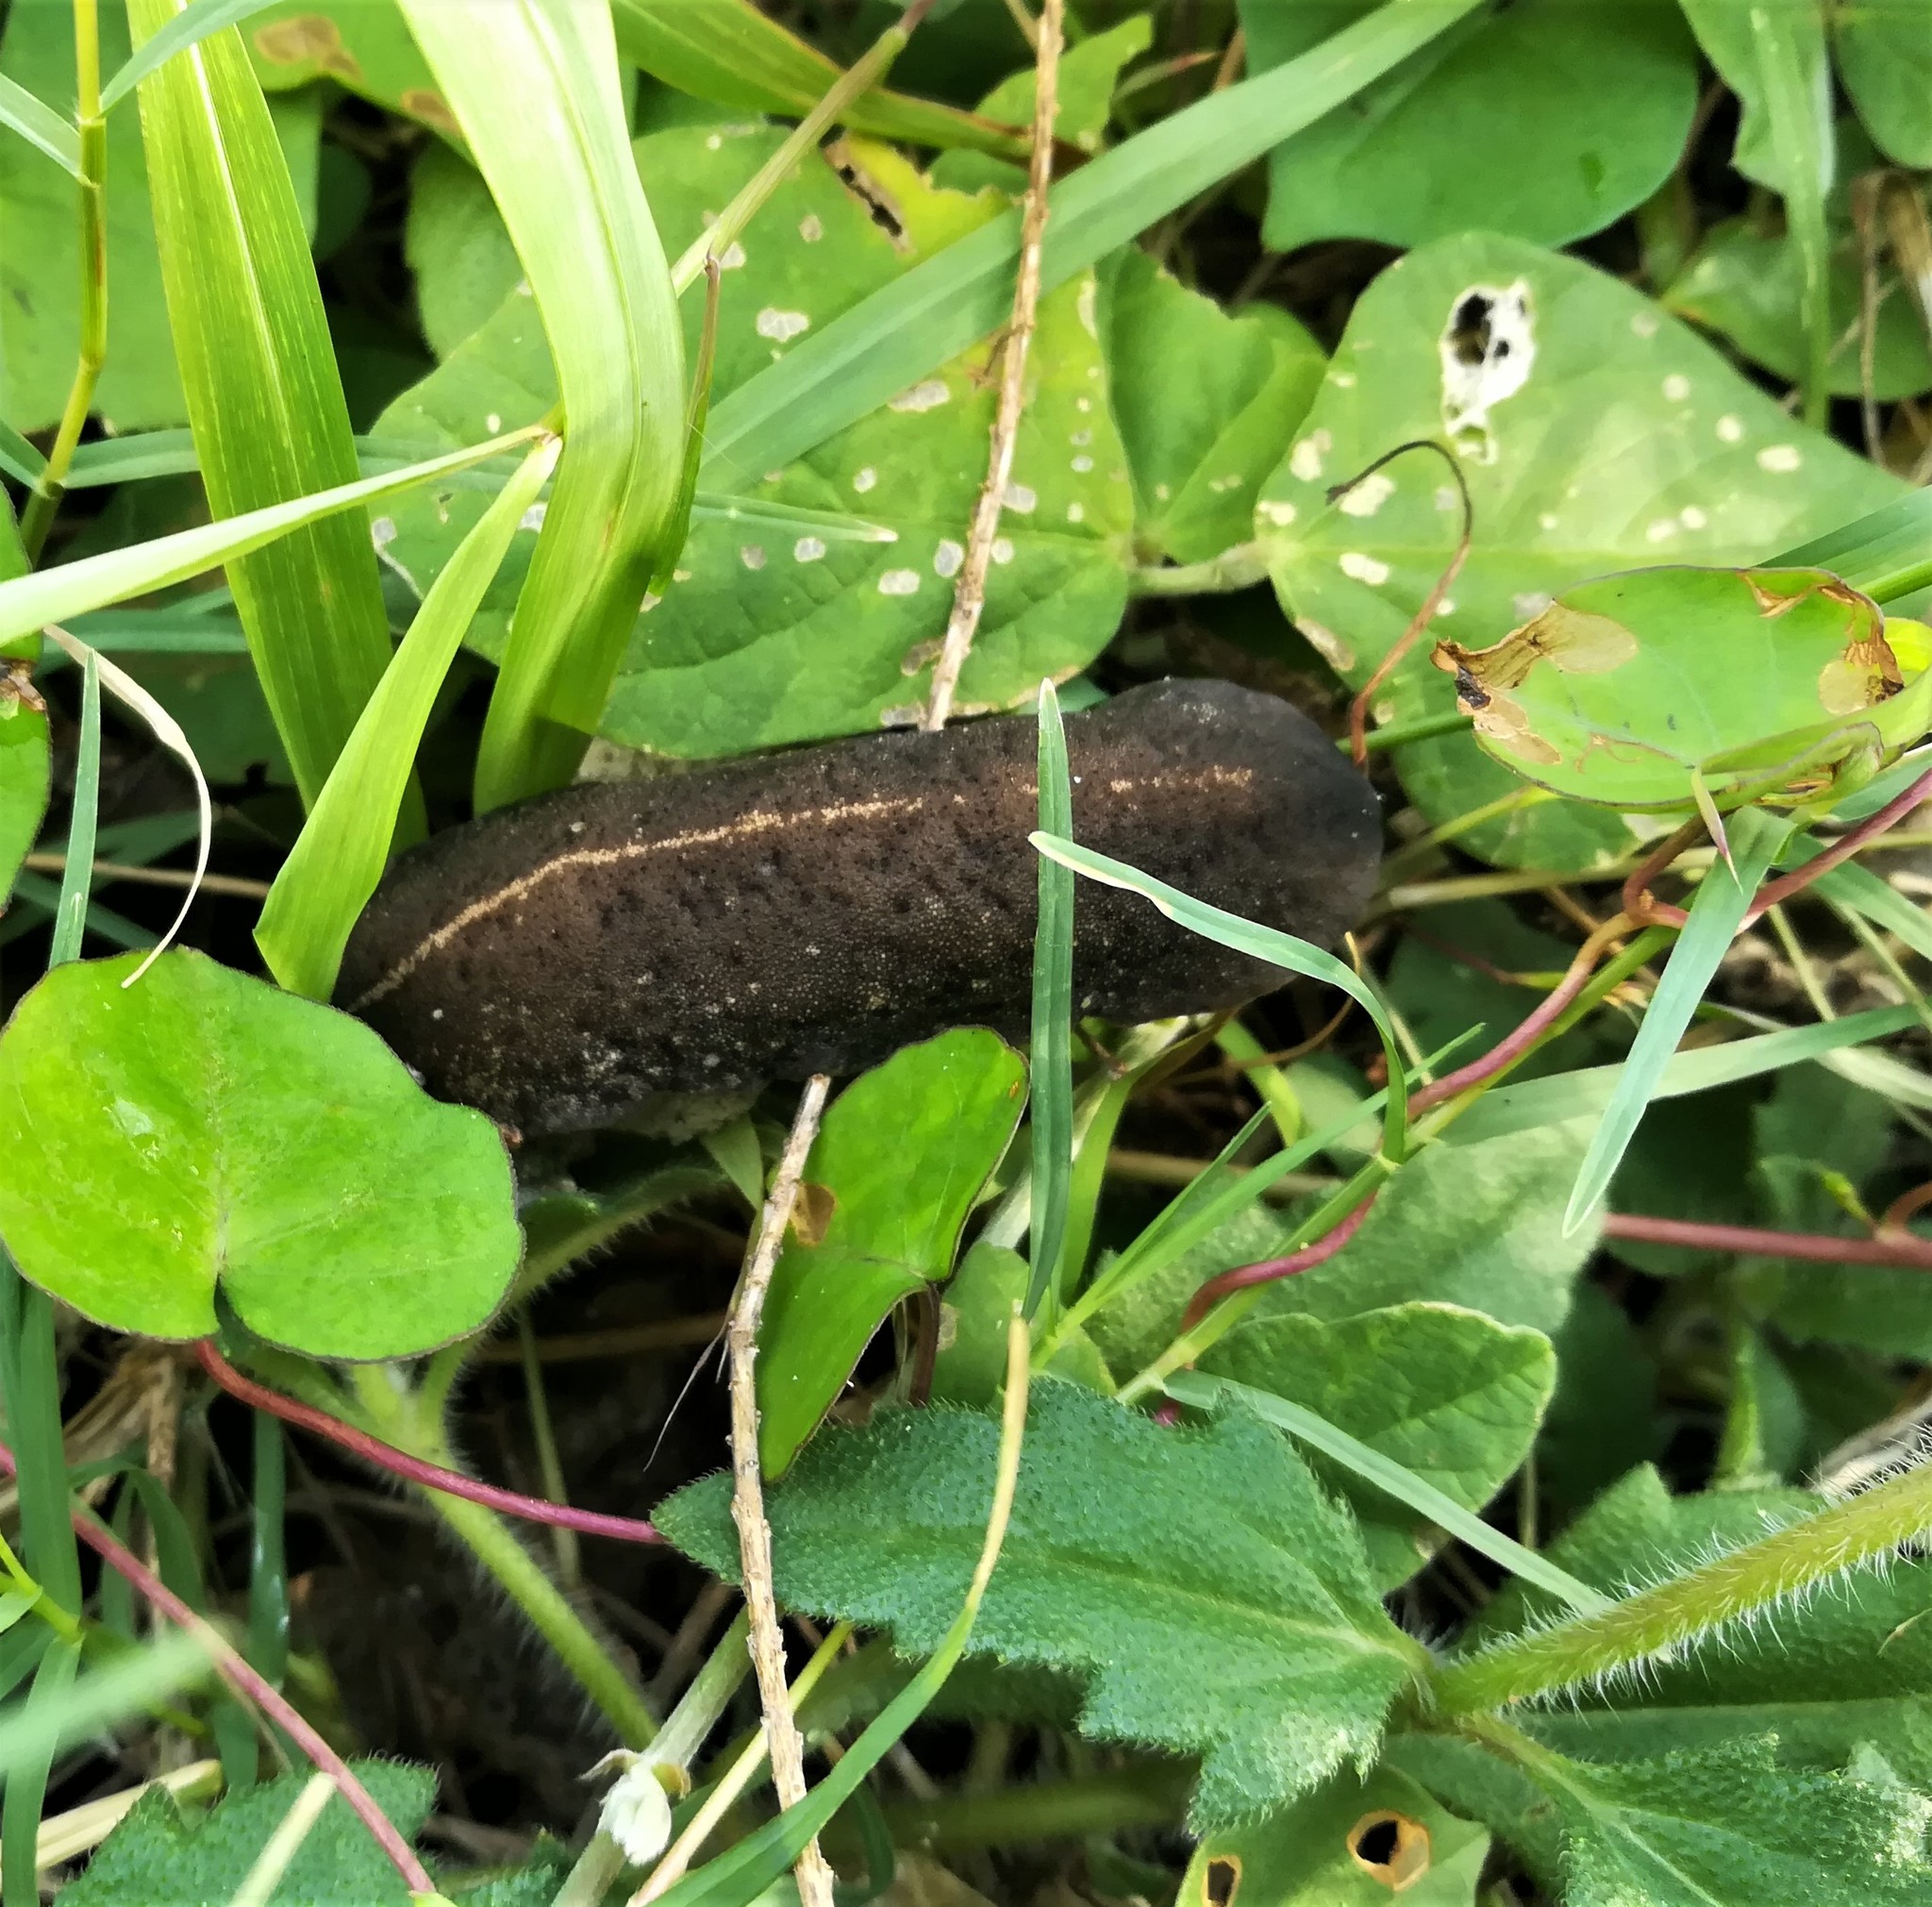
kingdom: Animalia
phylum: Mollusca
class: Gastropoda
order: Systellommatophora
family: Veronicellidae
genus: Laevicaulis
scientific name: Laevicaulis alte
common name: Tropical leatherleaf
